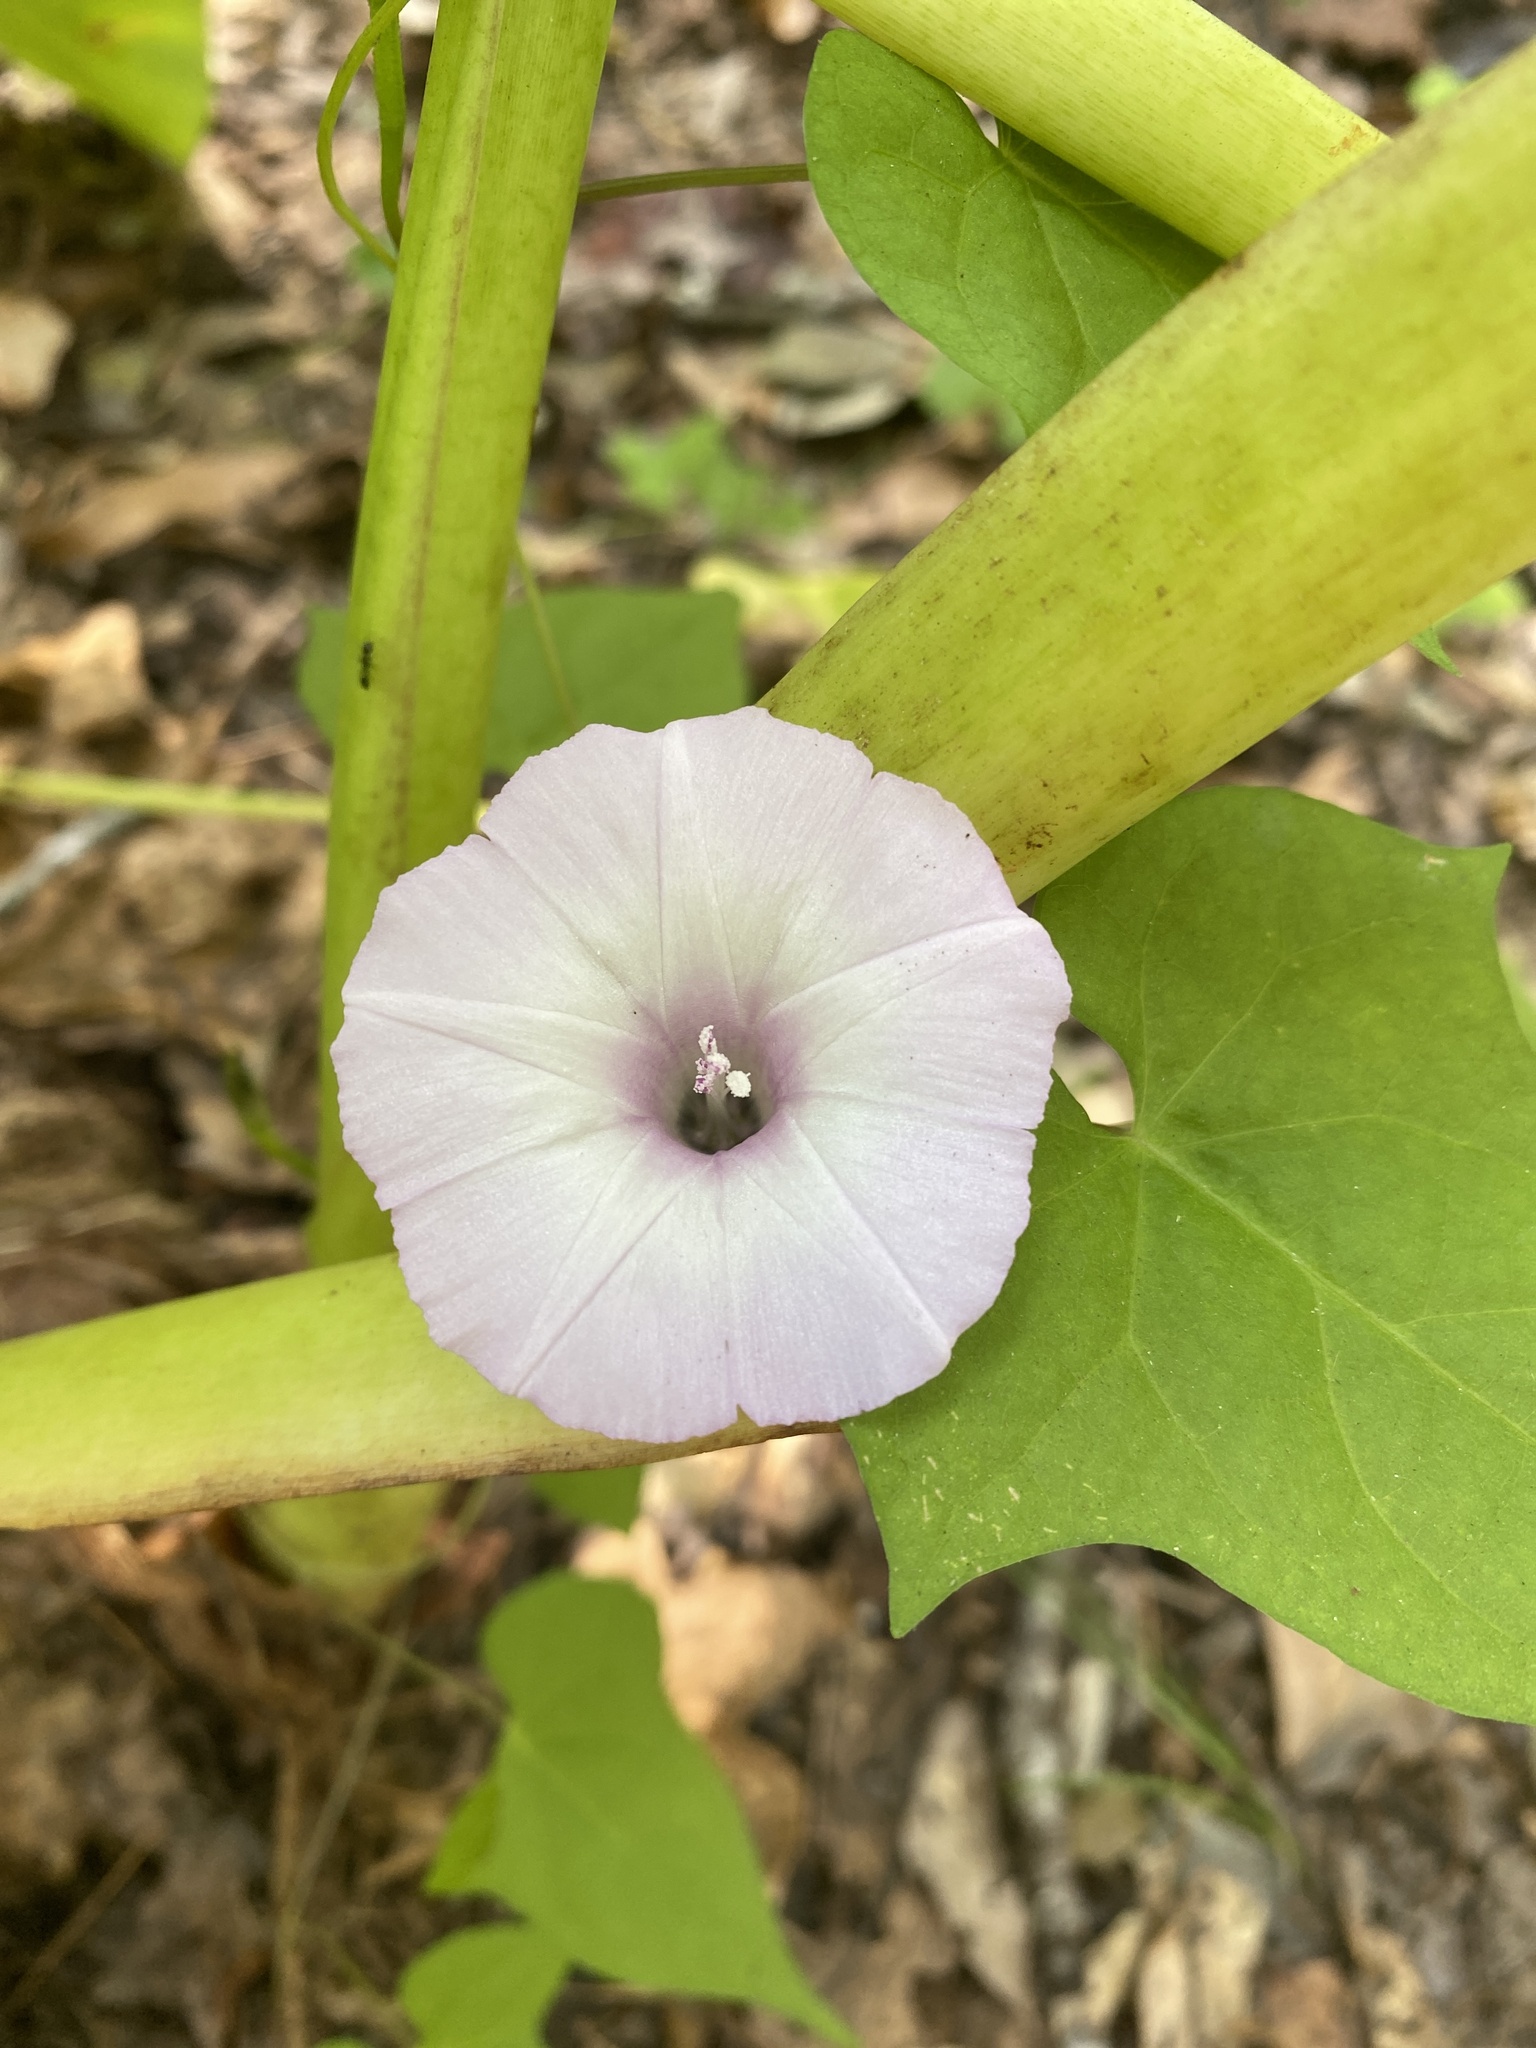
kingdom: Plantae
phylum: Tracheophyta
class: Magnoliopsida
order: Solanales
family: Convolvulaceae
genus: Ipomoea
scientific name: Ipomoea lacunosa
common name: White morning-glory
